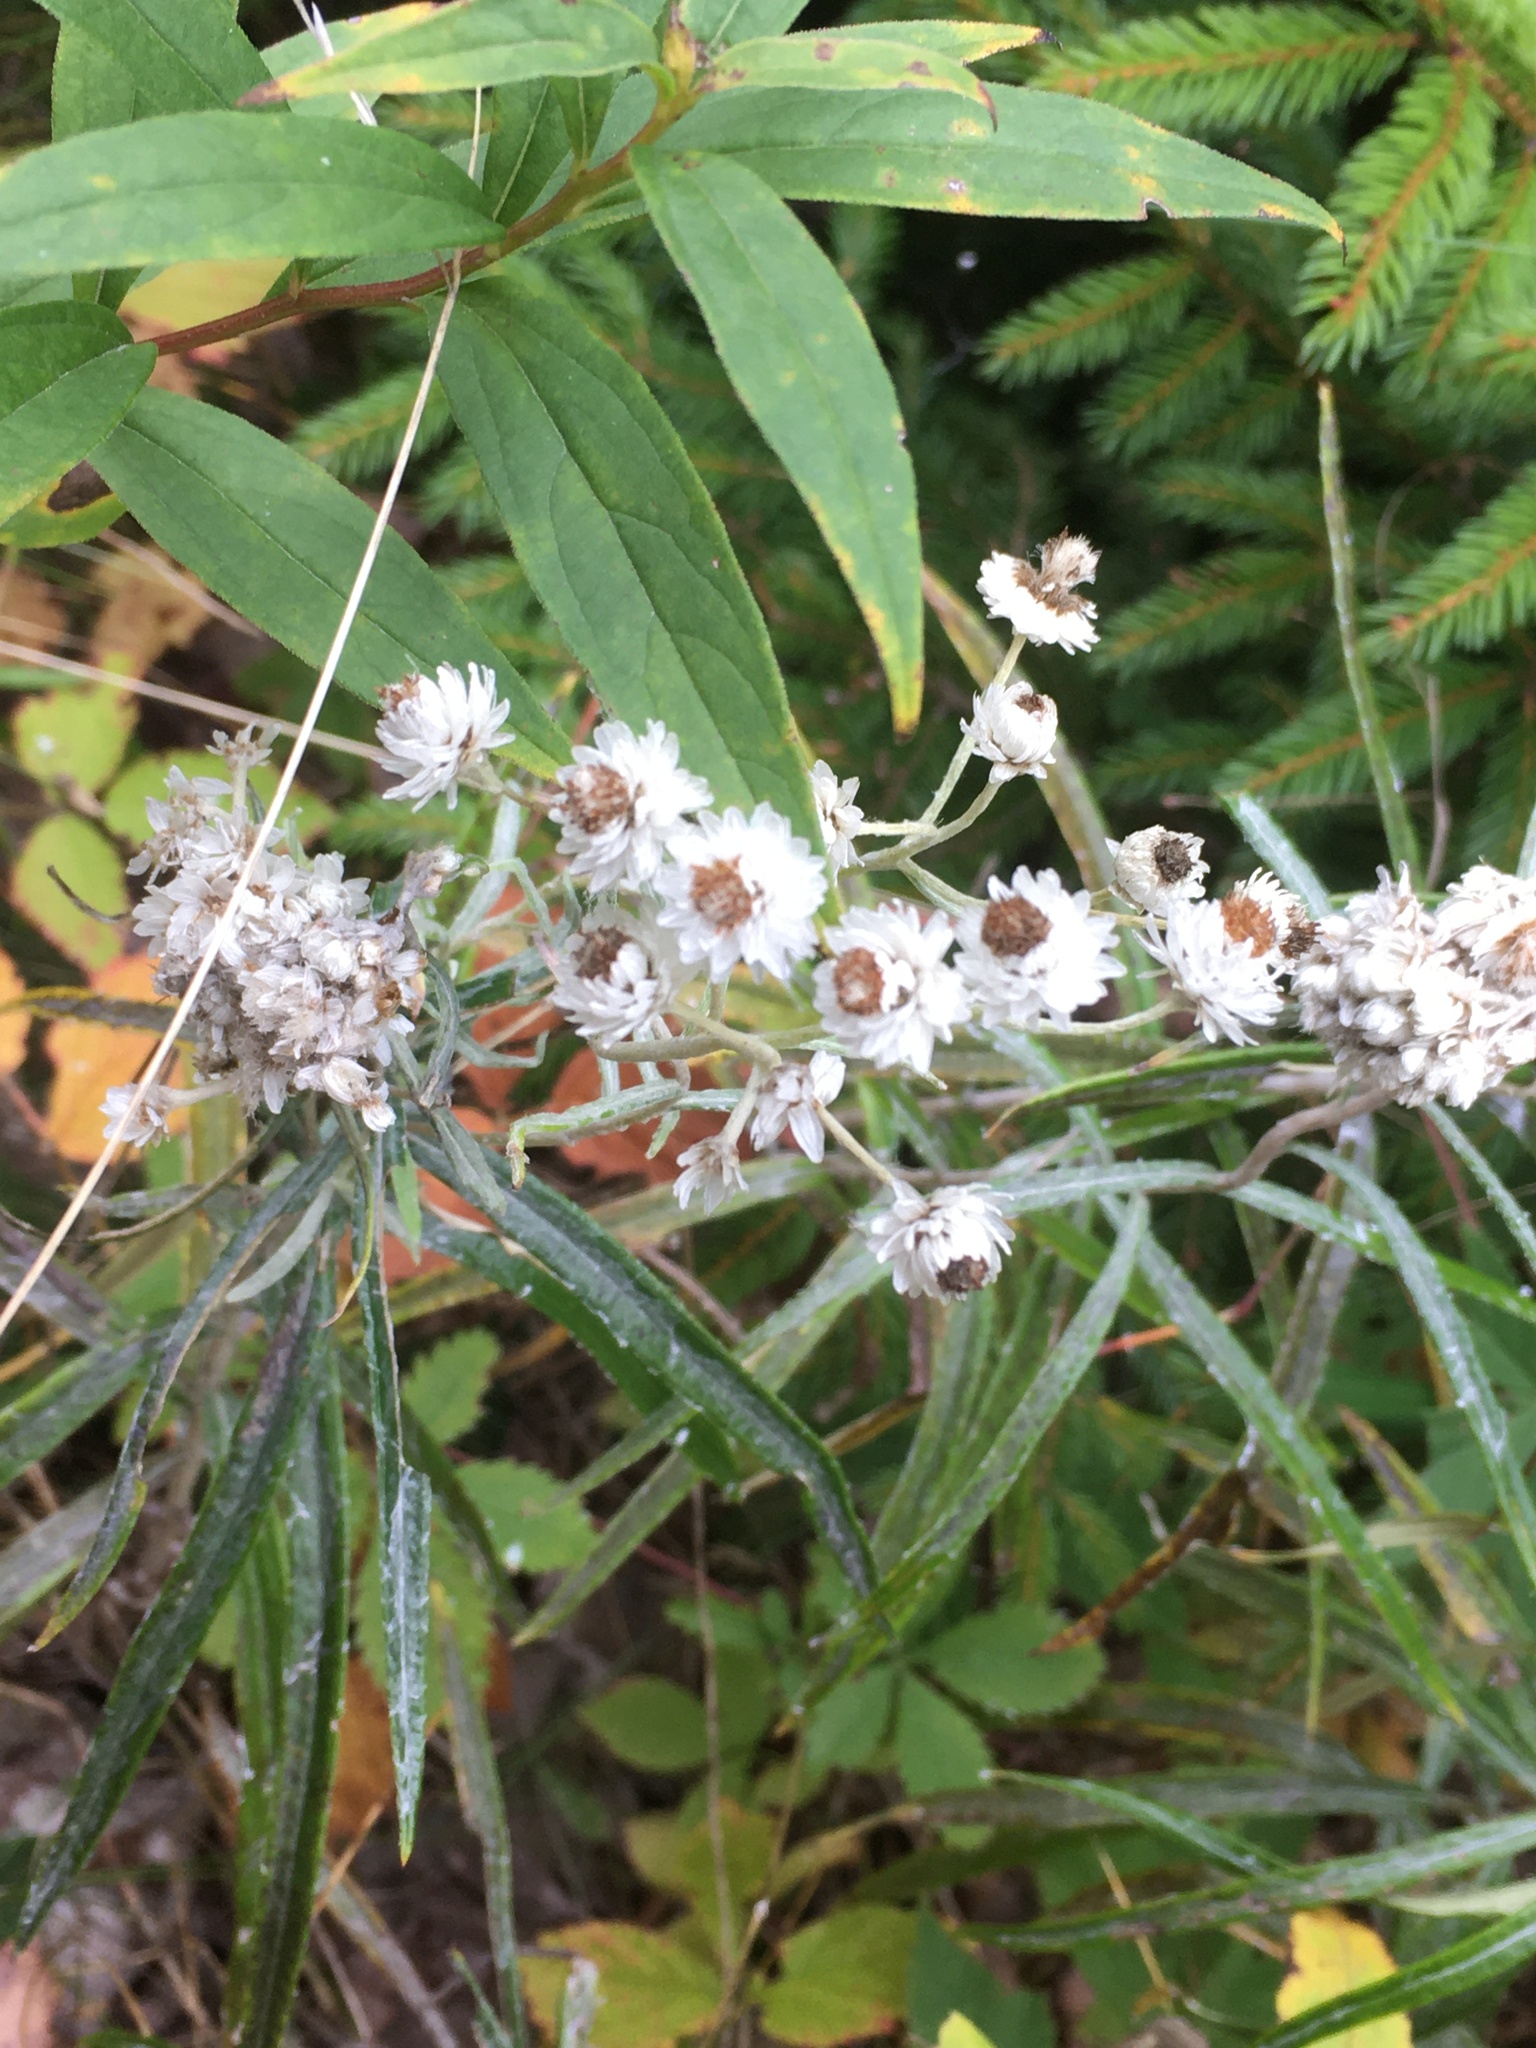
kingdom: Plantae
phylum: Tracheophyta
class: Magnoliopsida
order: Asterales
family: Asteraceae
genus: Anaphalis
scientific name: Anaphalis margaritacea
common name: Pearly everlasting
